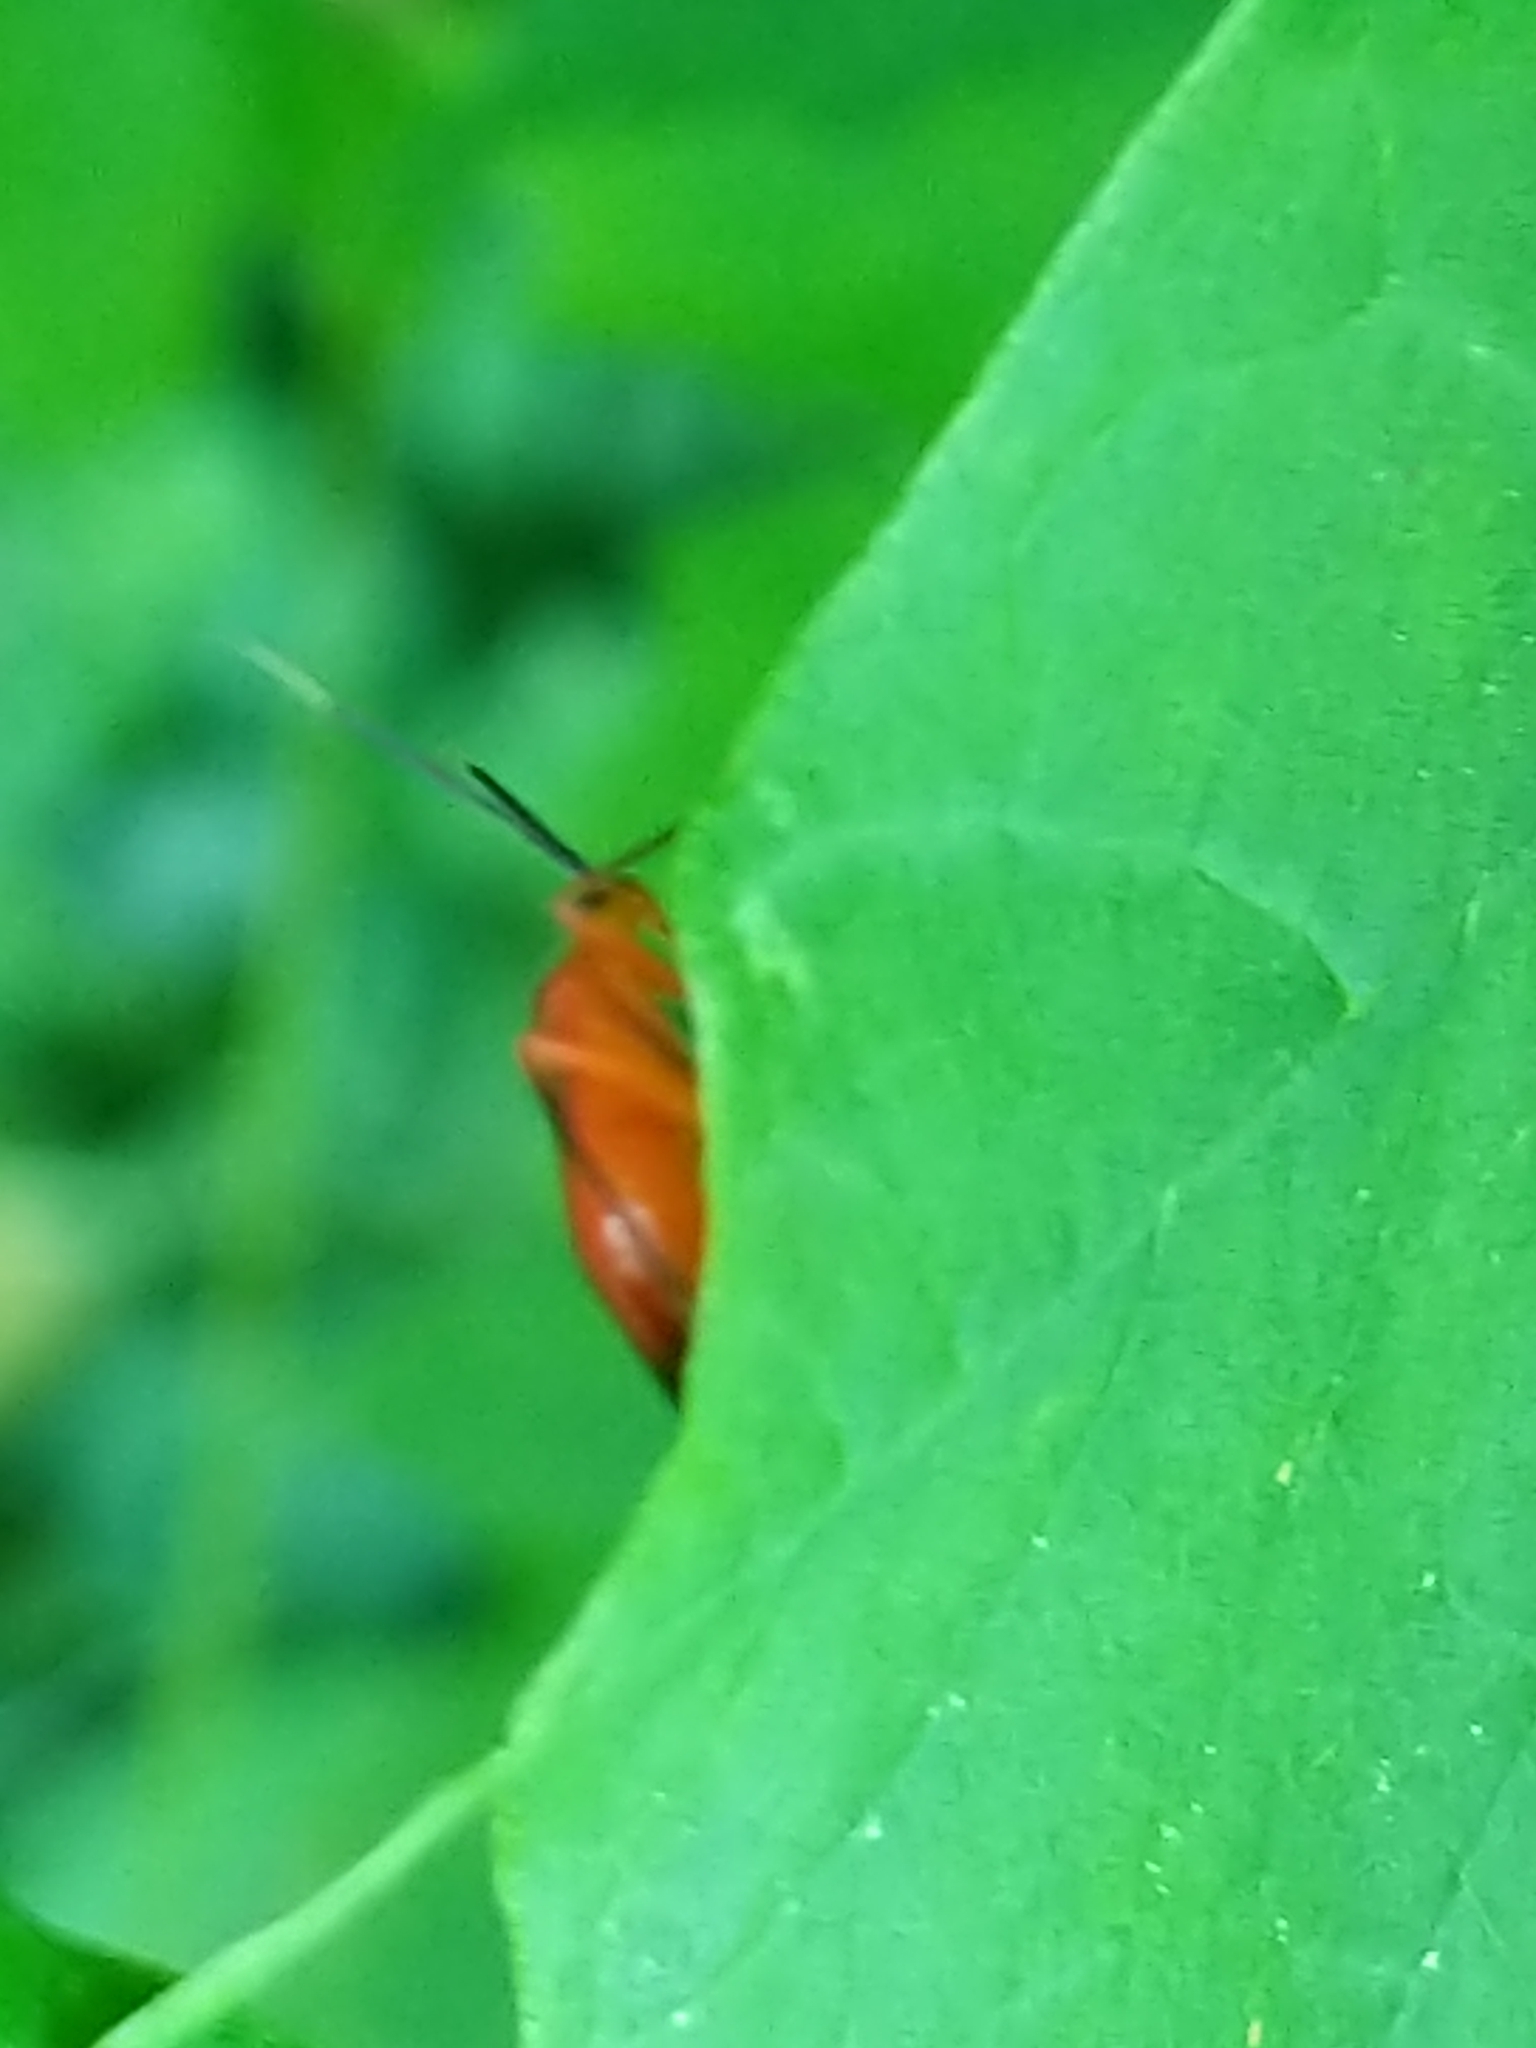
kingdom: Animalia
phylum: Arthropoda
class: Insecta
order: Hemiptera
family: Miridae
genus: Coccobaphes
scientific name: Coccobaphes frontifer
